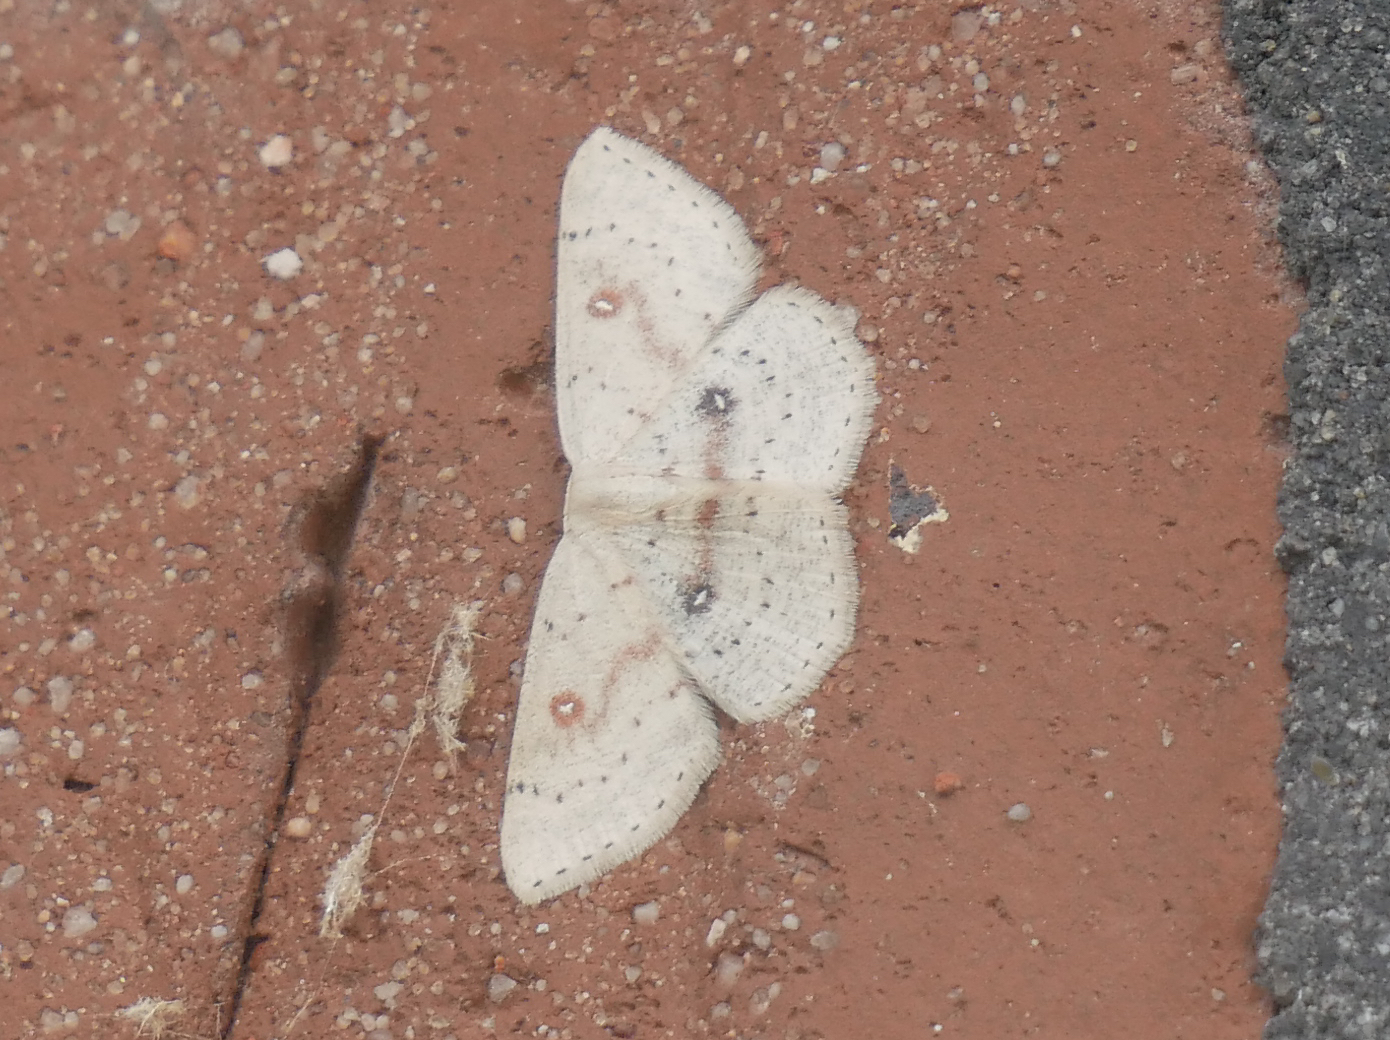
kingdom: Animalia
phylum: Arthropoda
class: Insecta
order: Lepidoptera
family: Geometridae
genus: Cyclophora
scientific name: Cyclophora albipunctata
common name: Birch mocha
